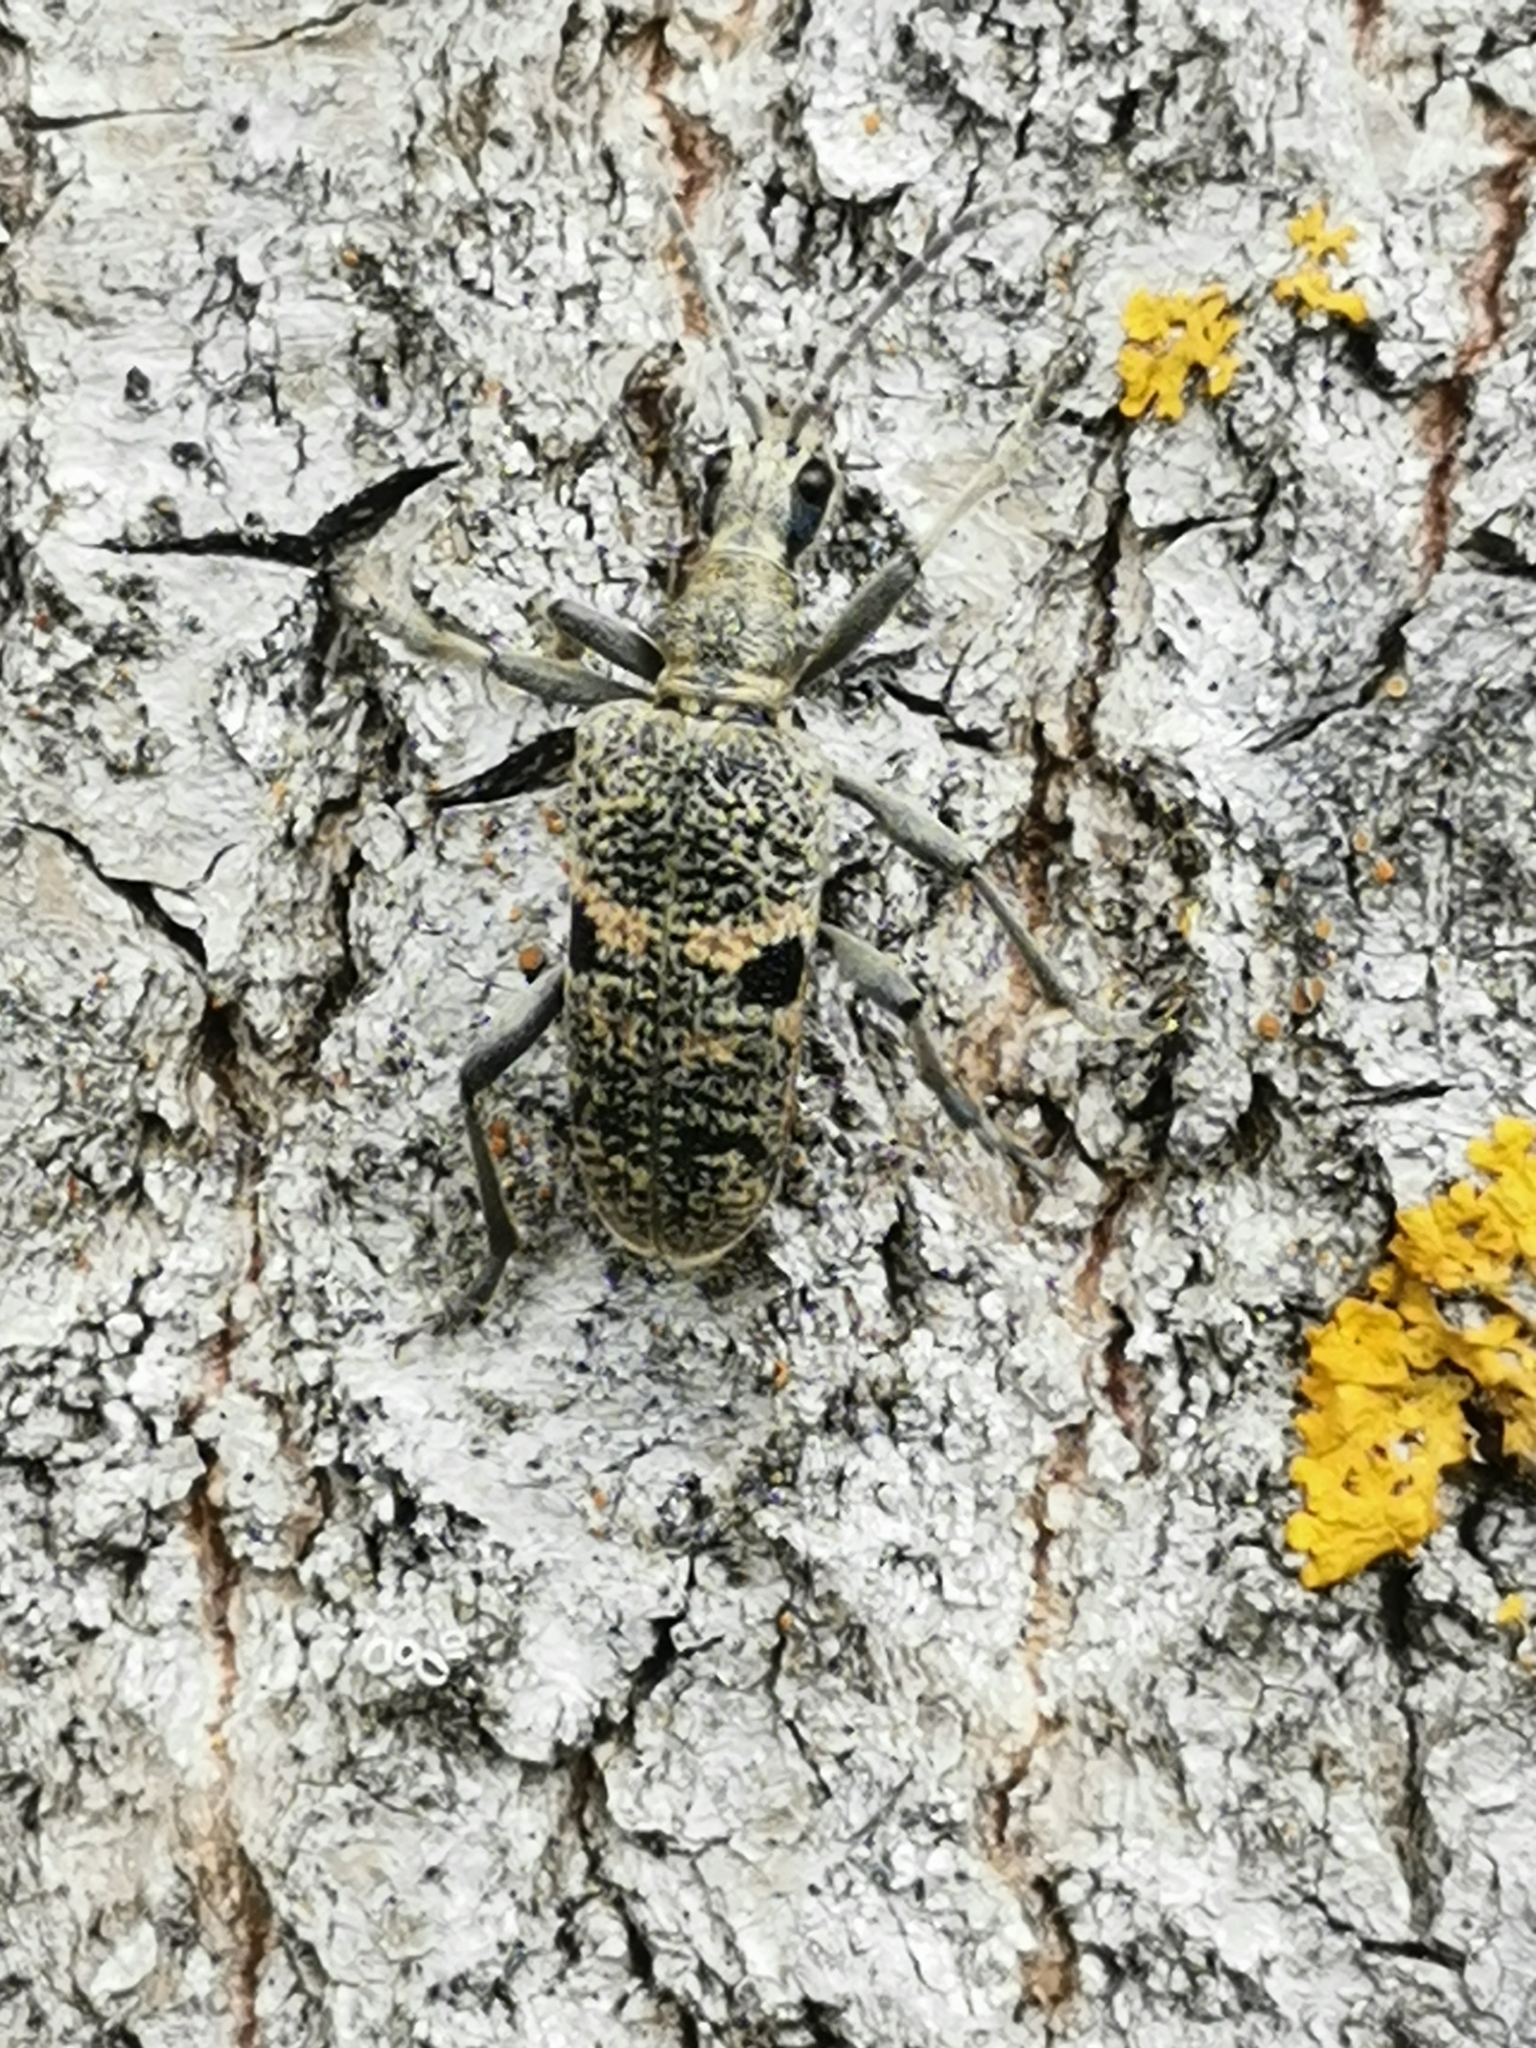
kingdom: Animalia
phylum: Arthropoda
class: Insecta
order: Coleoptera
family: Cerambycidae
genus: Rhagium
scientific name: Rhagium mordax
